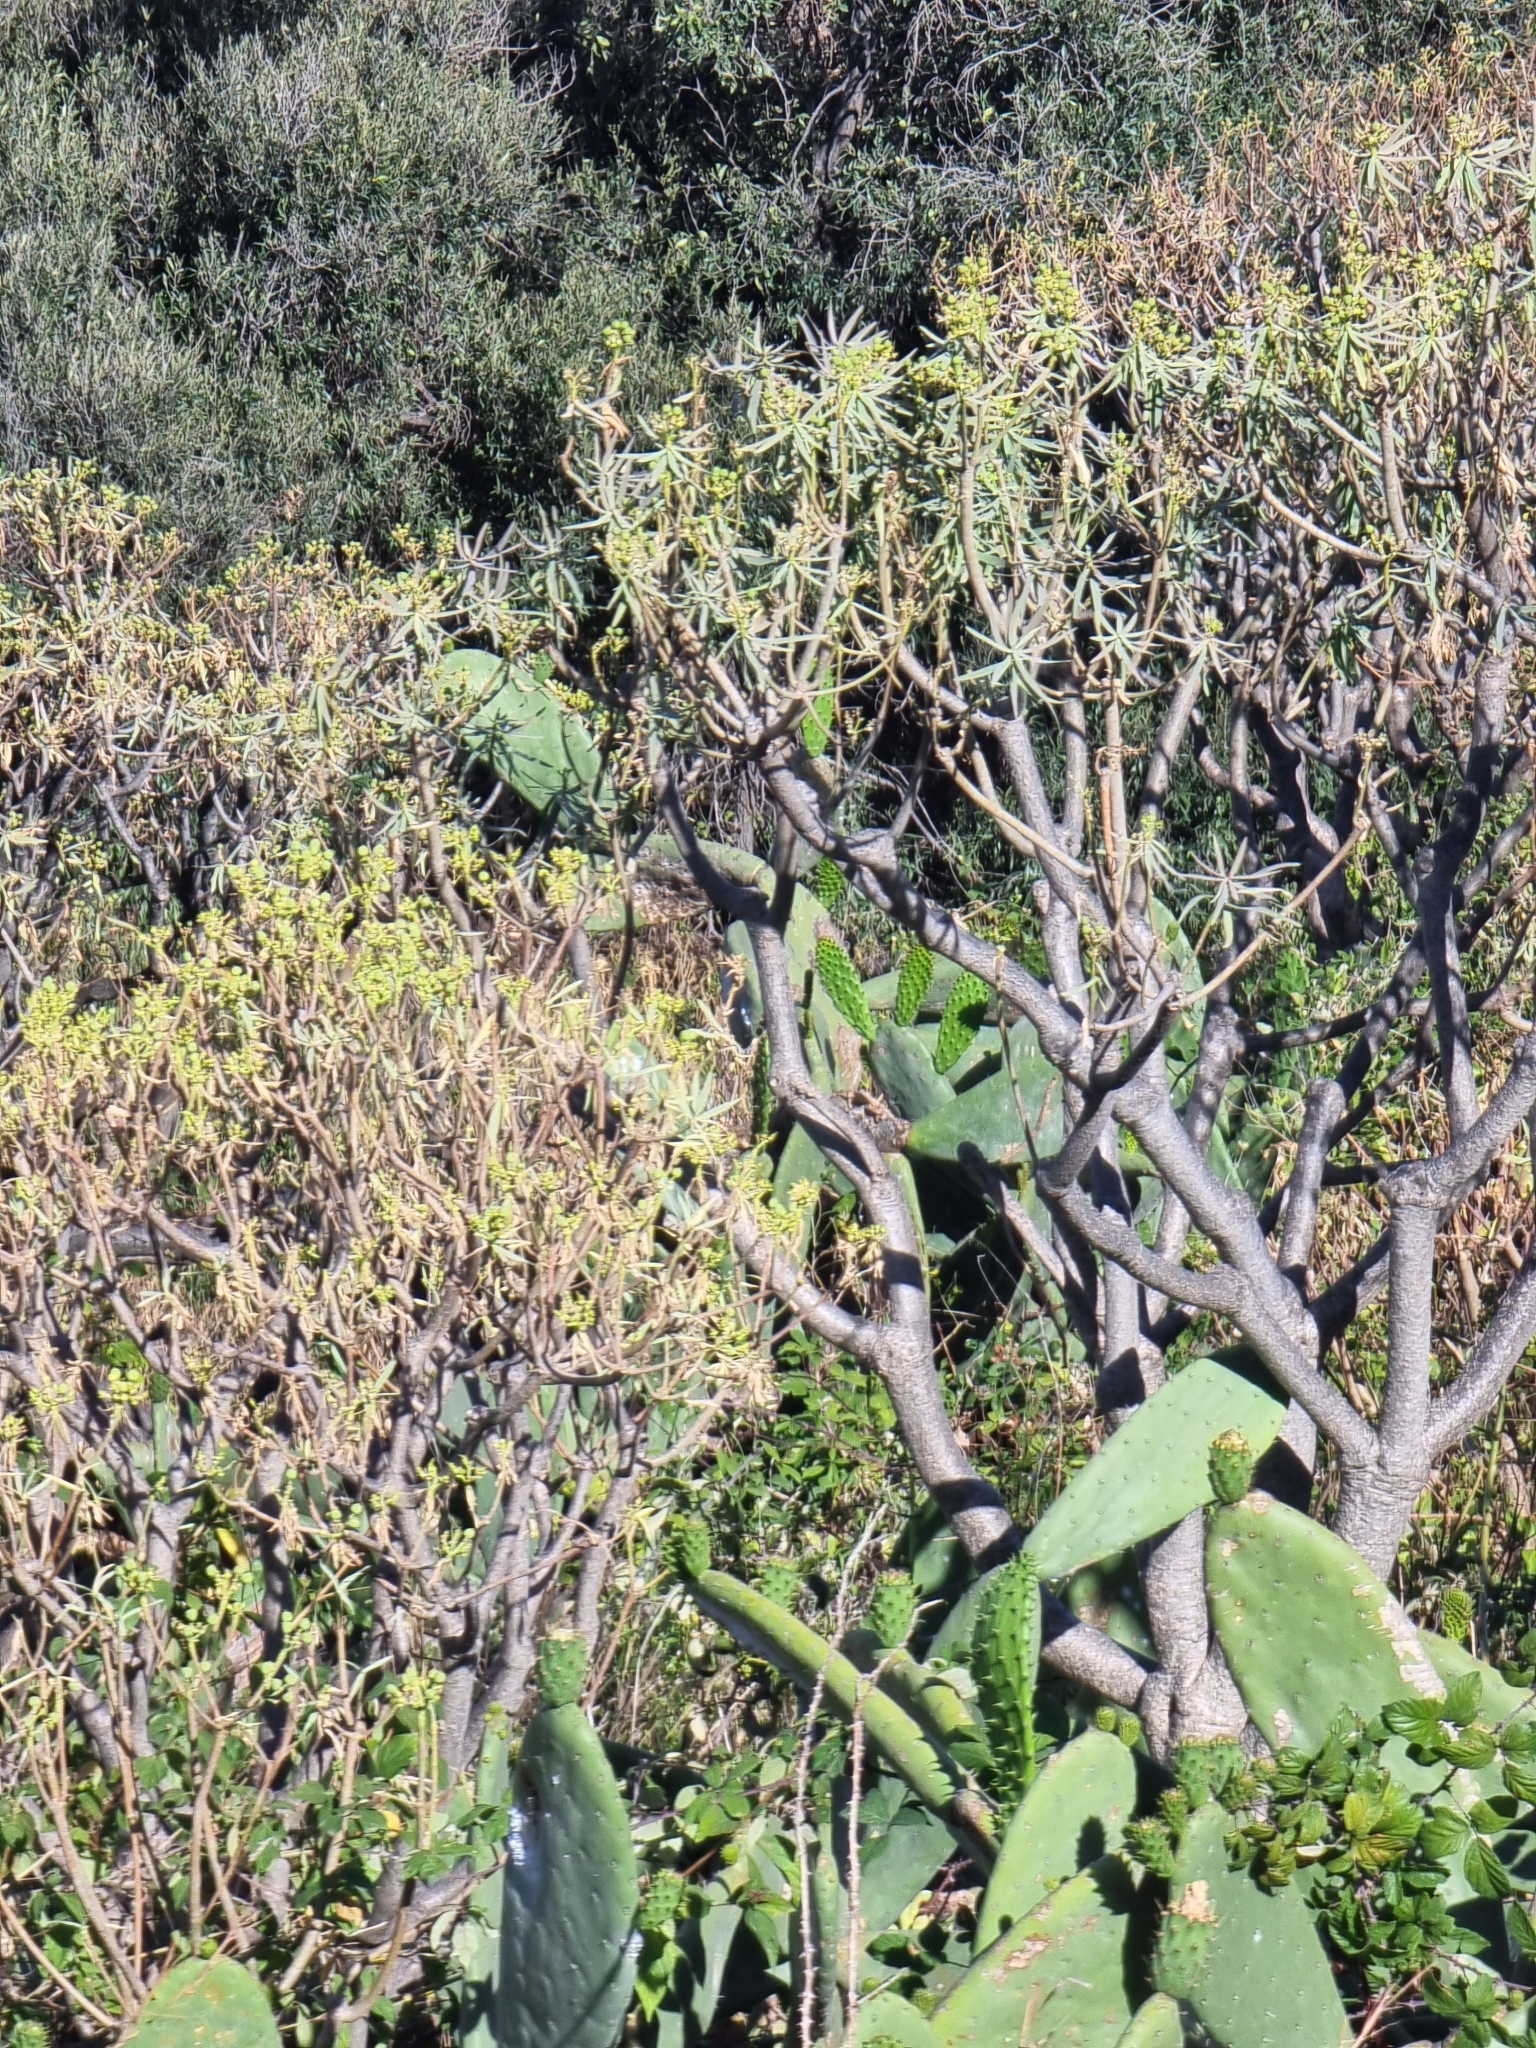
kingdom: Plantae
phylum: Tracheophyta
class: Magnoliopsida
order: Malpighiales
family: Euphorbiaceae
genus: Euphorbia
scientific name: Euphorbia piscatoria
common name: Fish-stunning spurge
